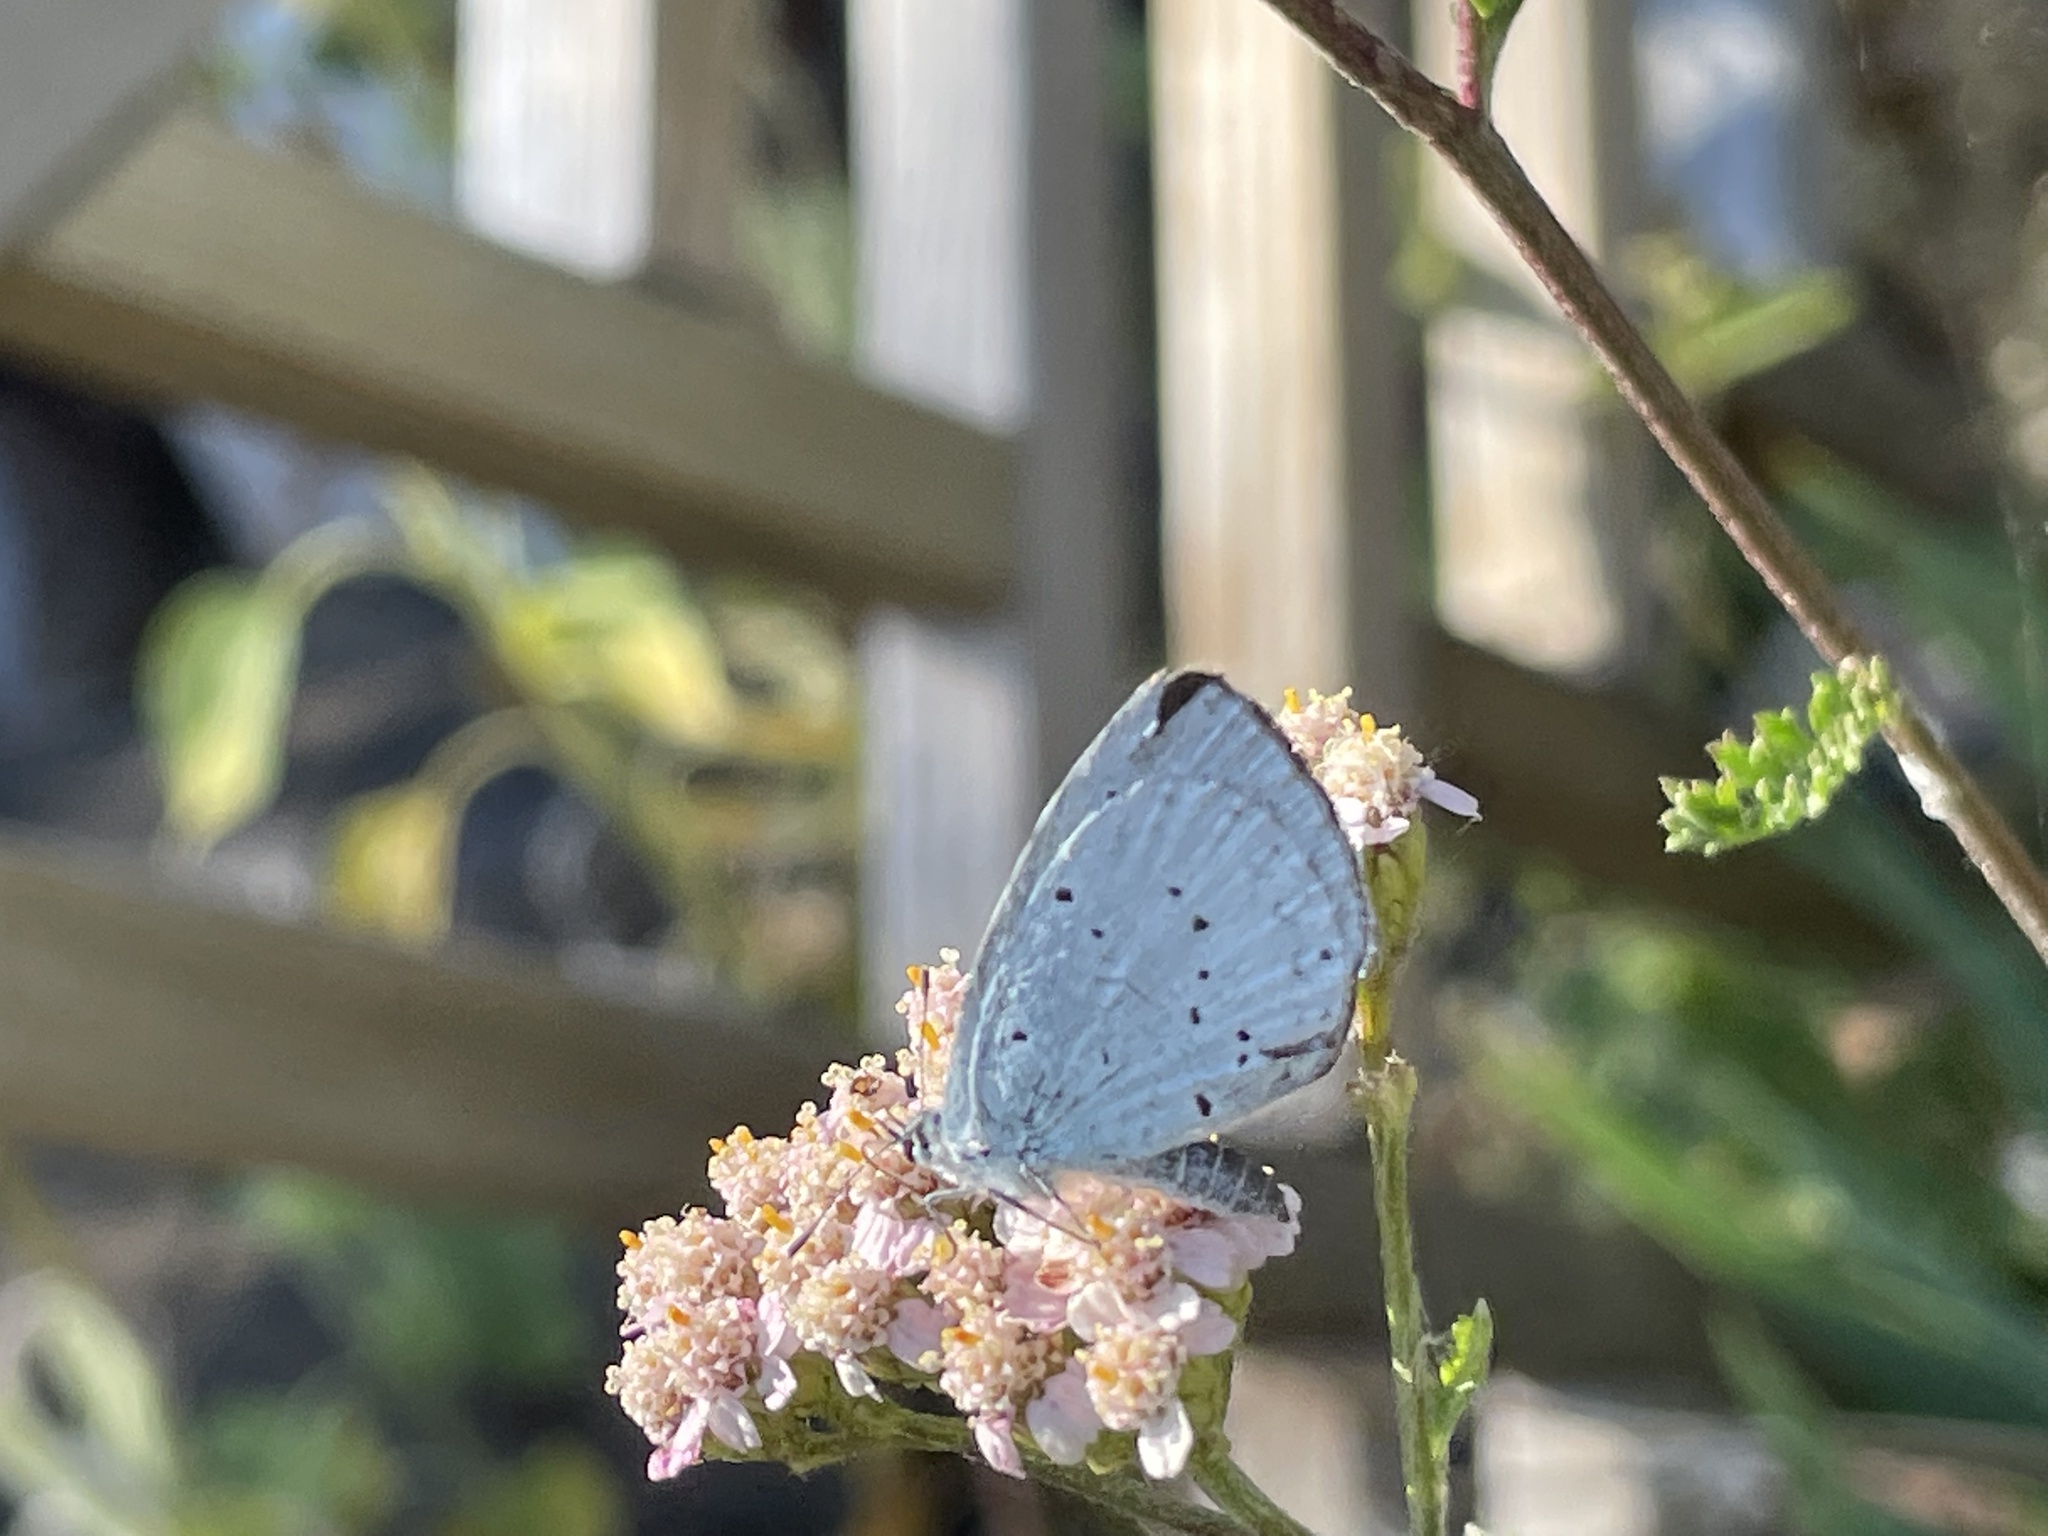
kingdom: Animalia
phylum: Arthropoda
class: Insecta
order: Lepidoptera
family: Lycaenidae
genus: Celastrina
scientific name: Celastrina argiolus
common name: Holly blue
